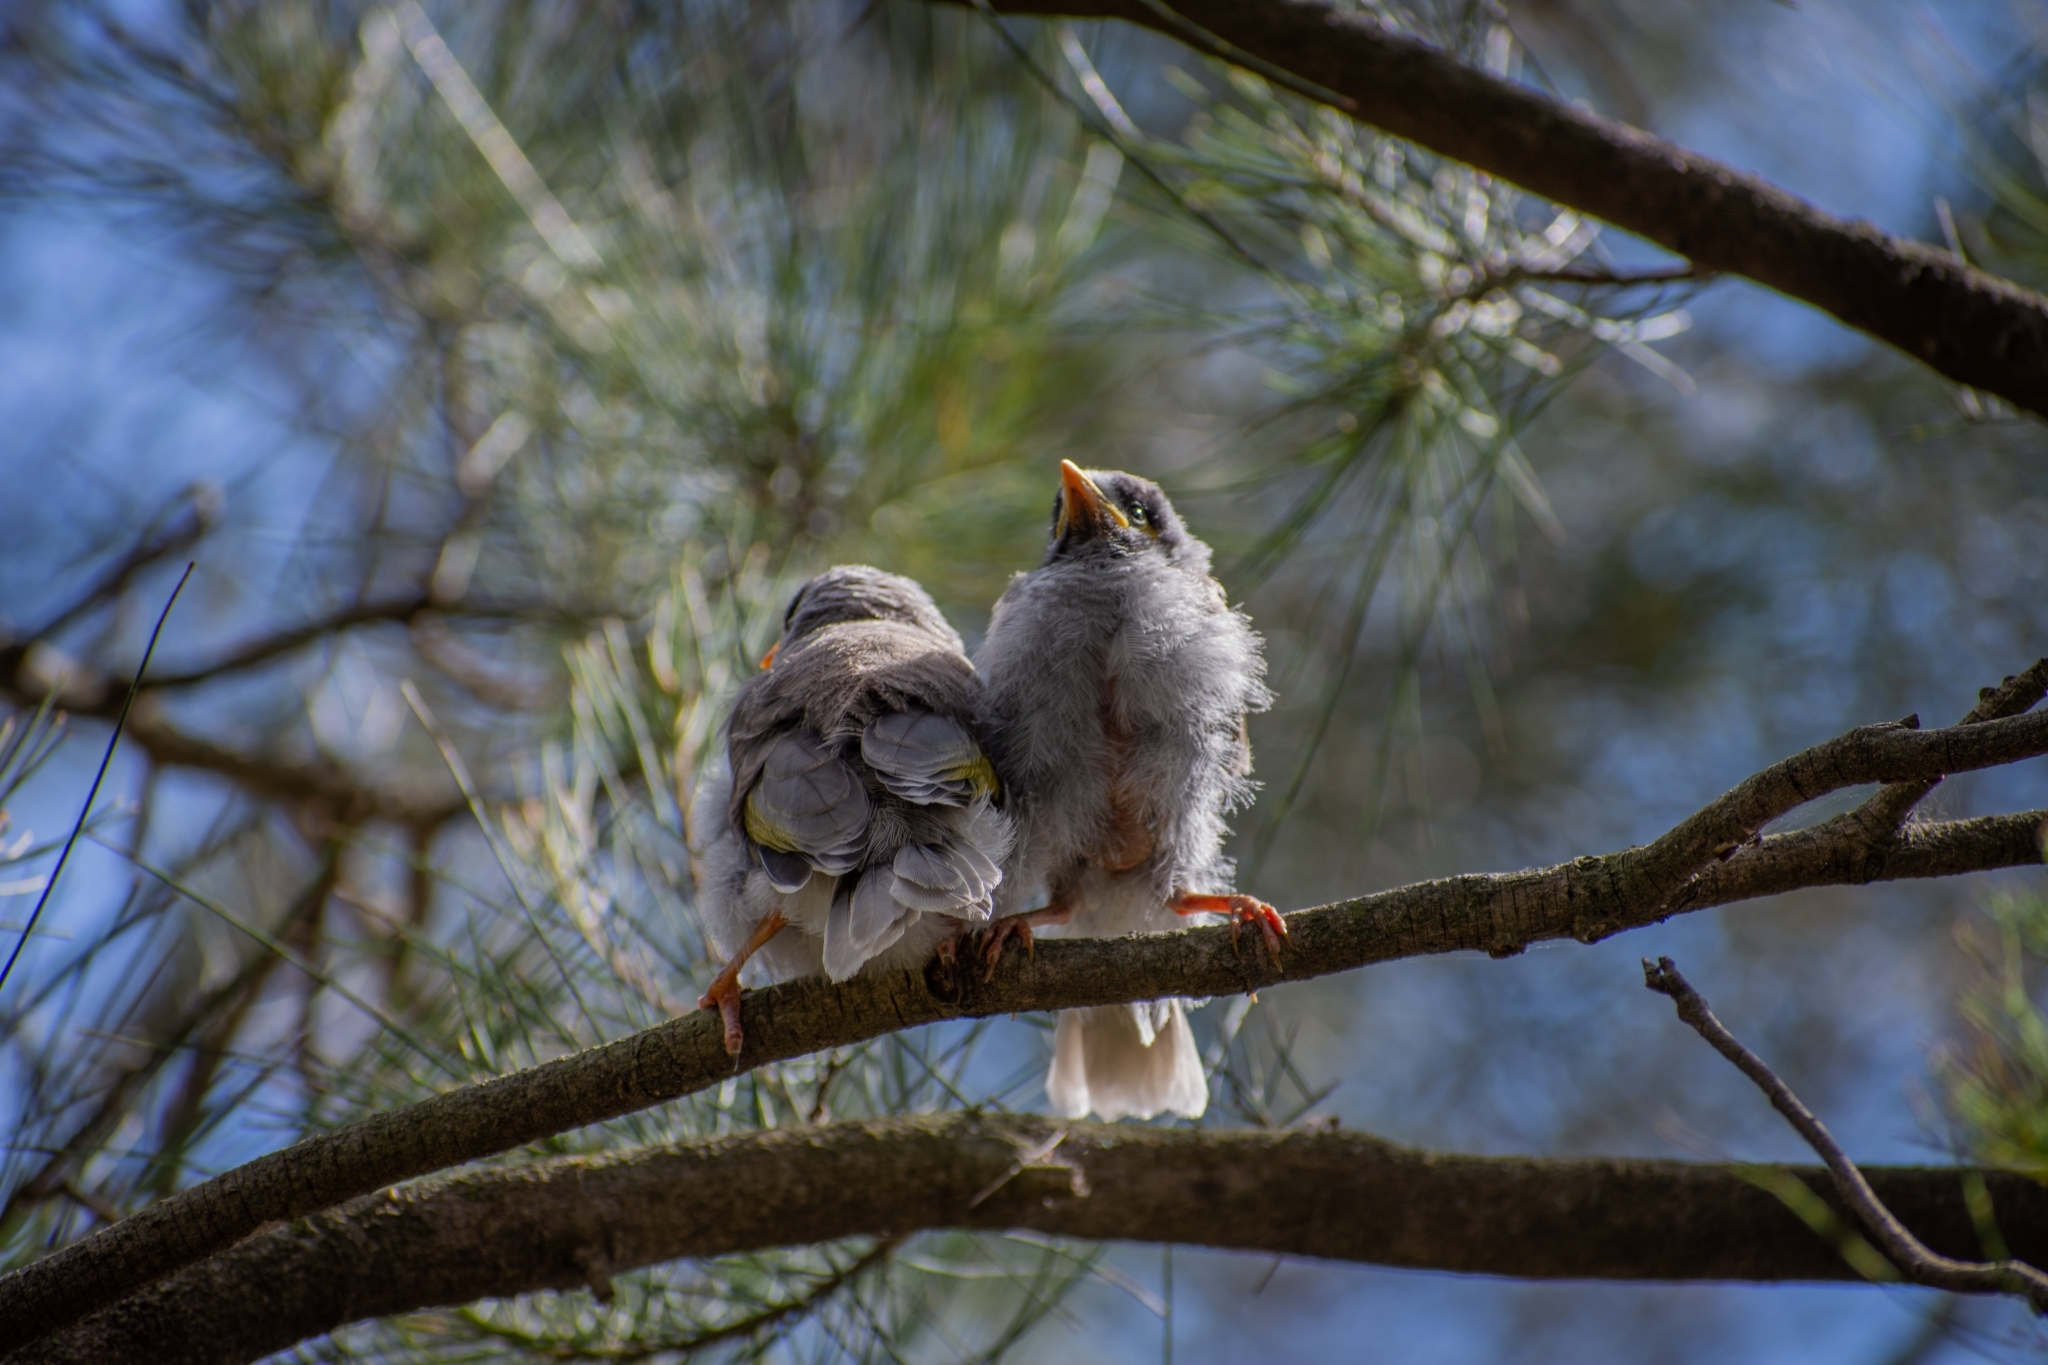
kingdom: Animalia
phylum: Chordata
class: Aves
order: Passeriformes
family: Meliphagidae
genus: Manorina
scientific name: Manorina melanocephala
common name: Noisy miner
